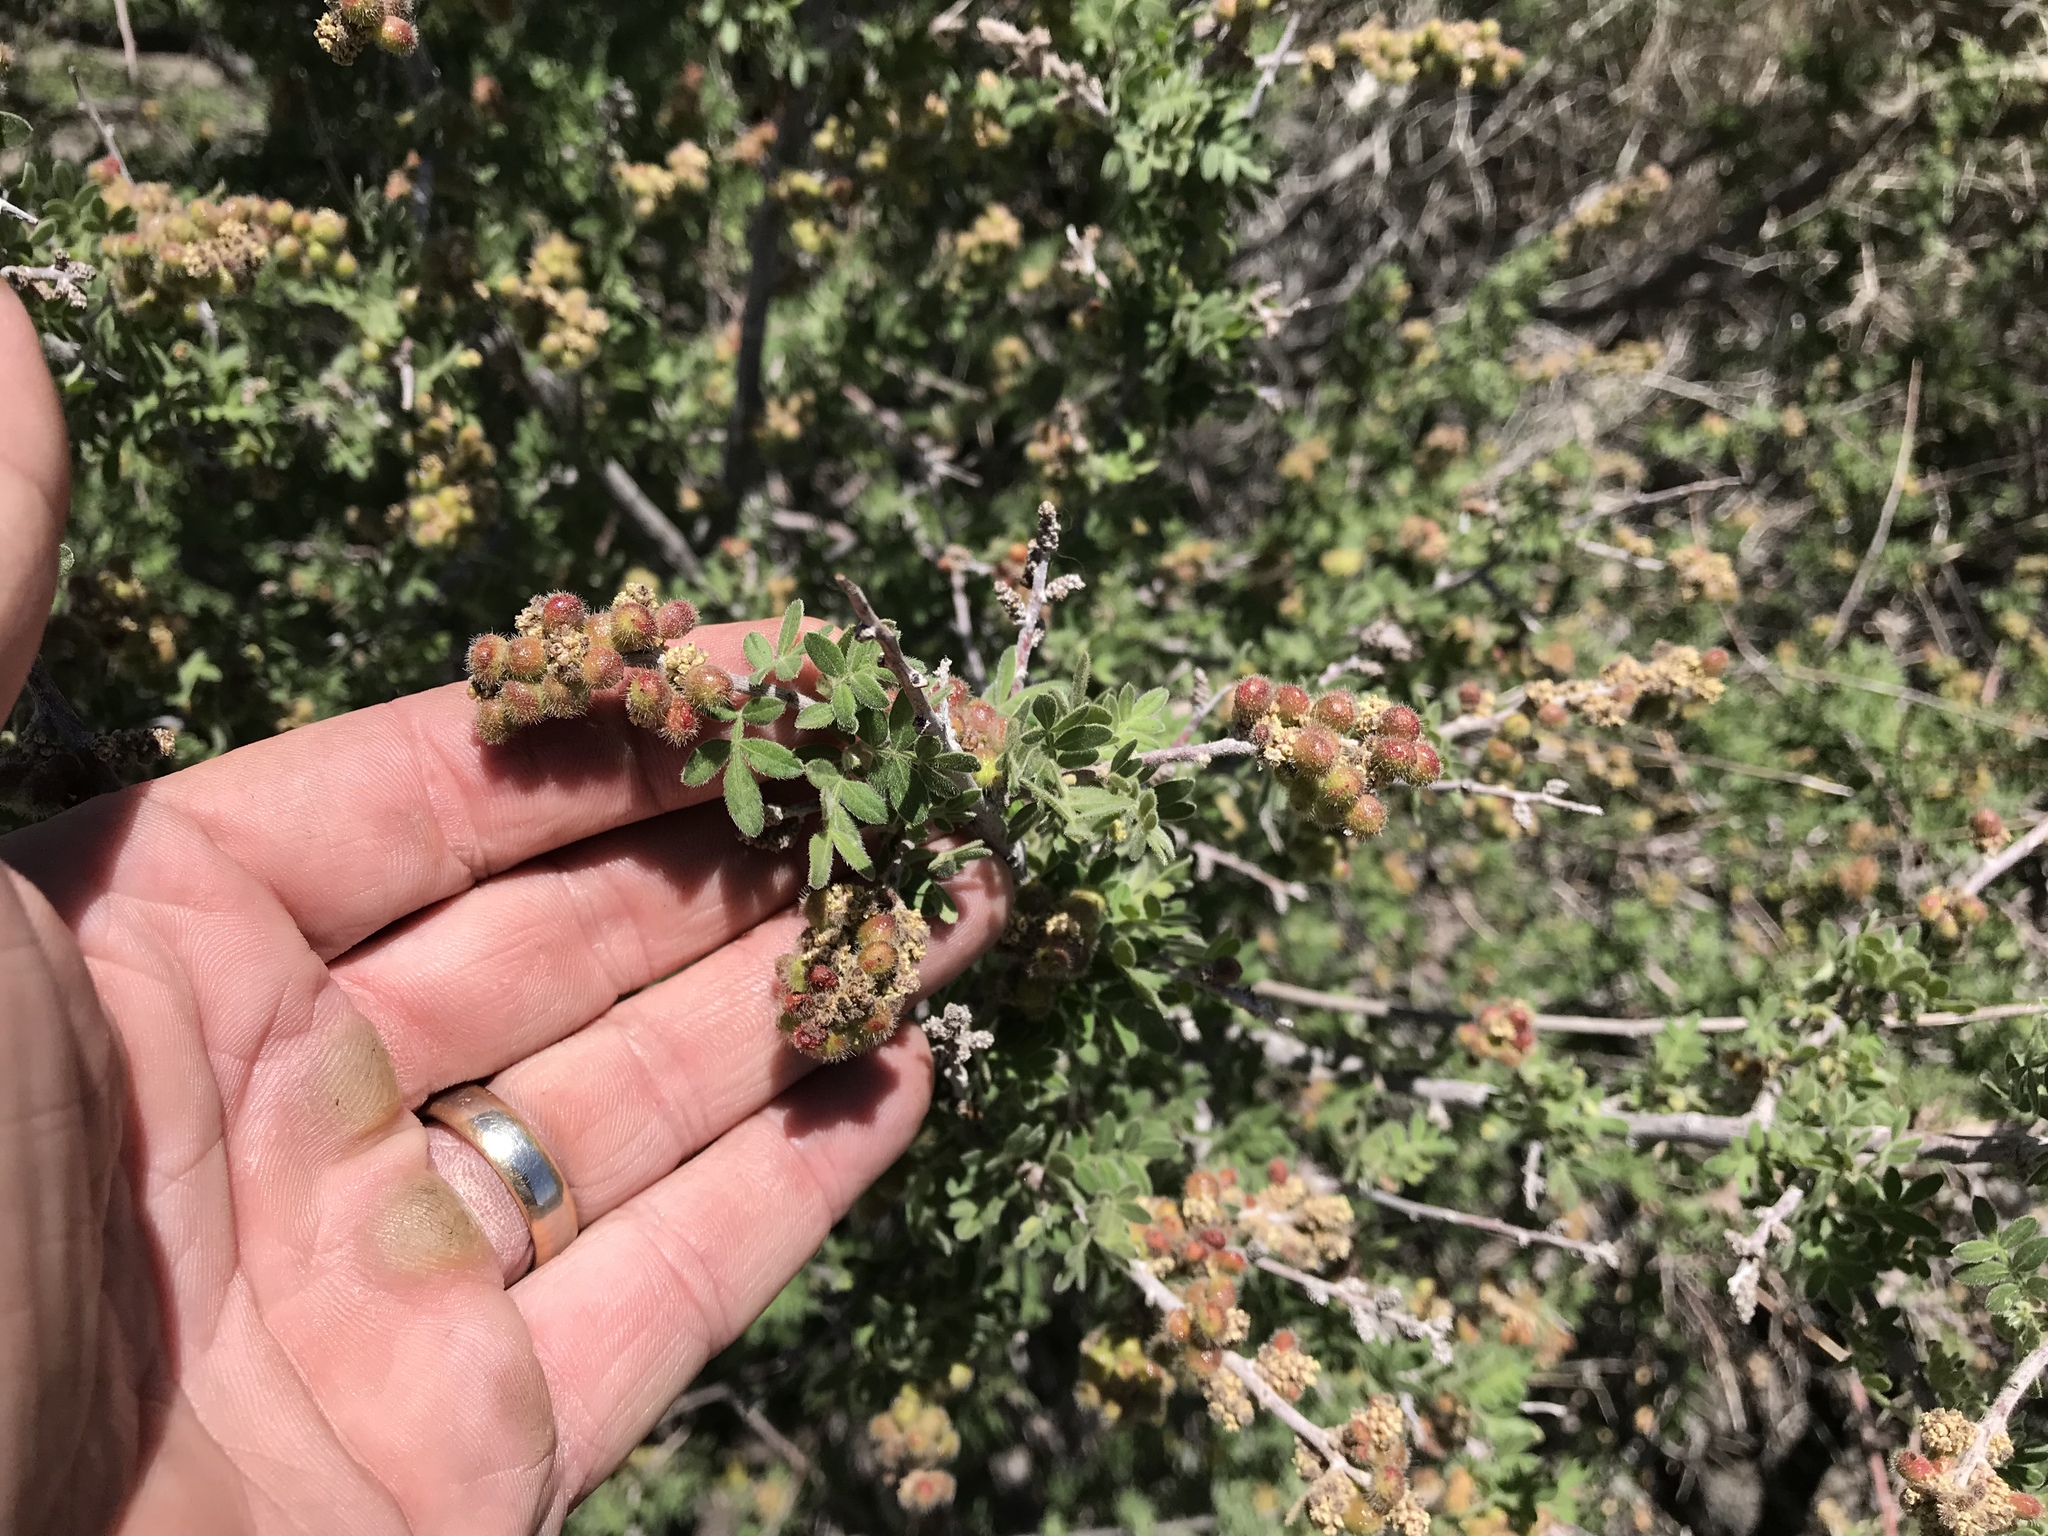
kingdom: Plantae
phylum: Tracheophyta
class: Magnoliopsida
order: Sapindales
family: Anacardiaceae
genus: Rhus
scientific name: Rhus microphylla
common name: Desert sumac
